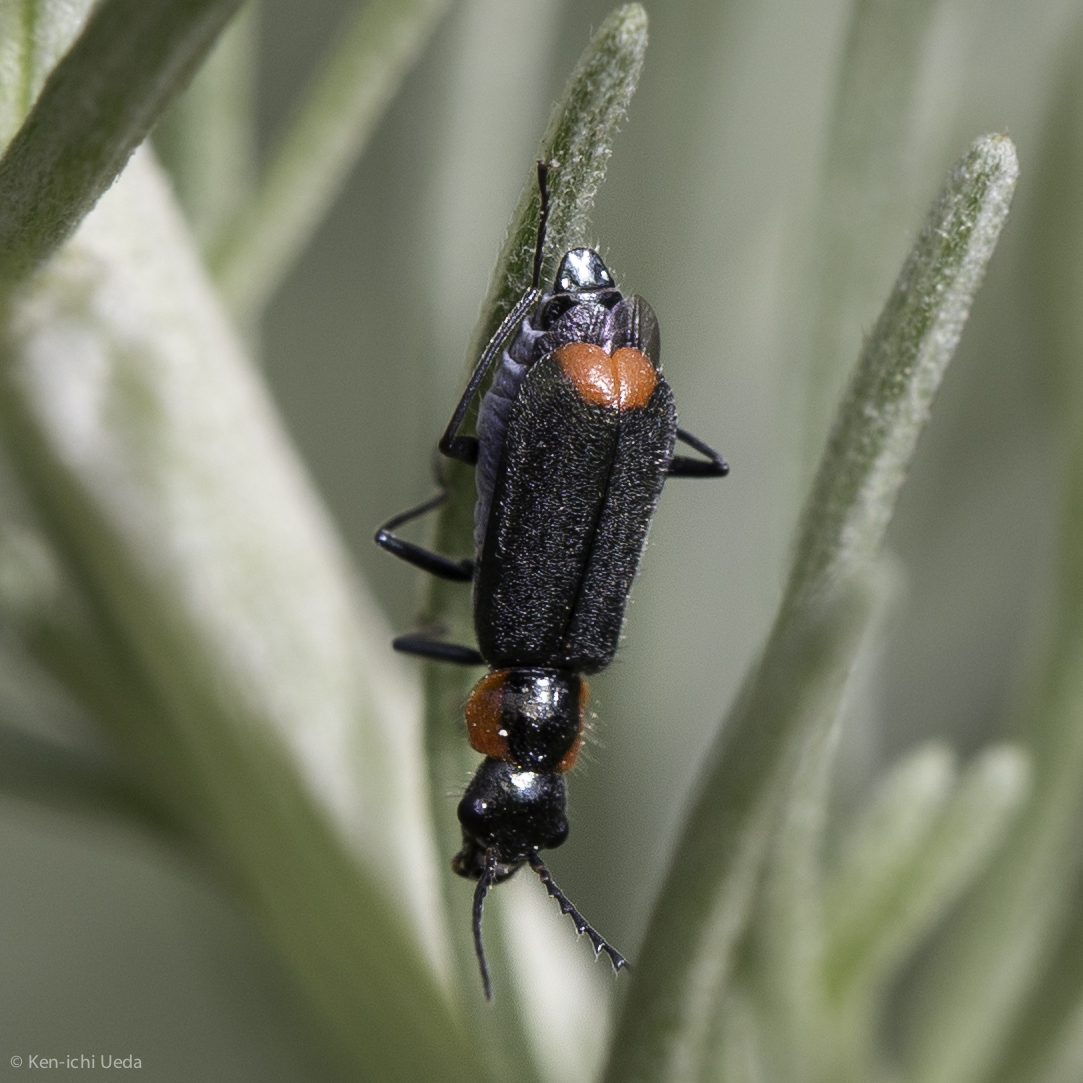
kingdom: Animalia
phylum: Arthropoda
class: Insecta
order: Coleoptera
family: Melyridae
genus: Malachius
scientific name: Malachius mixtus
